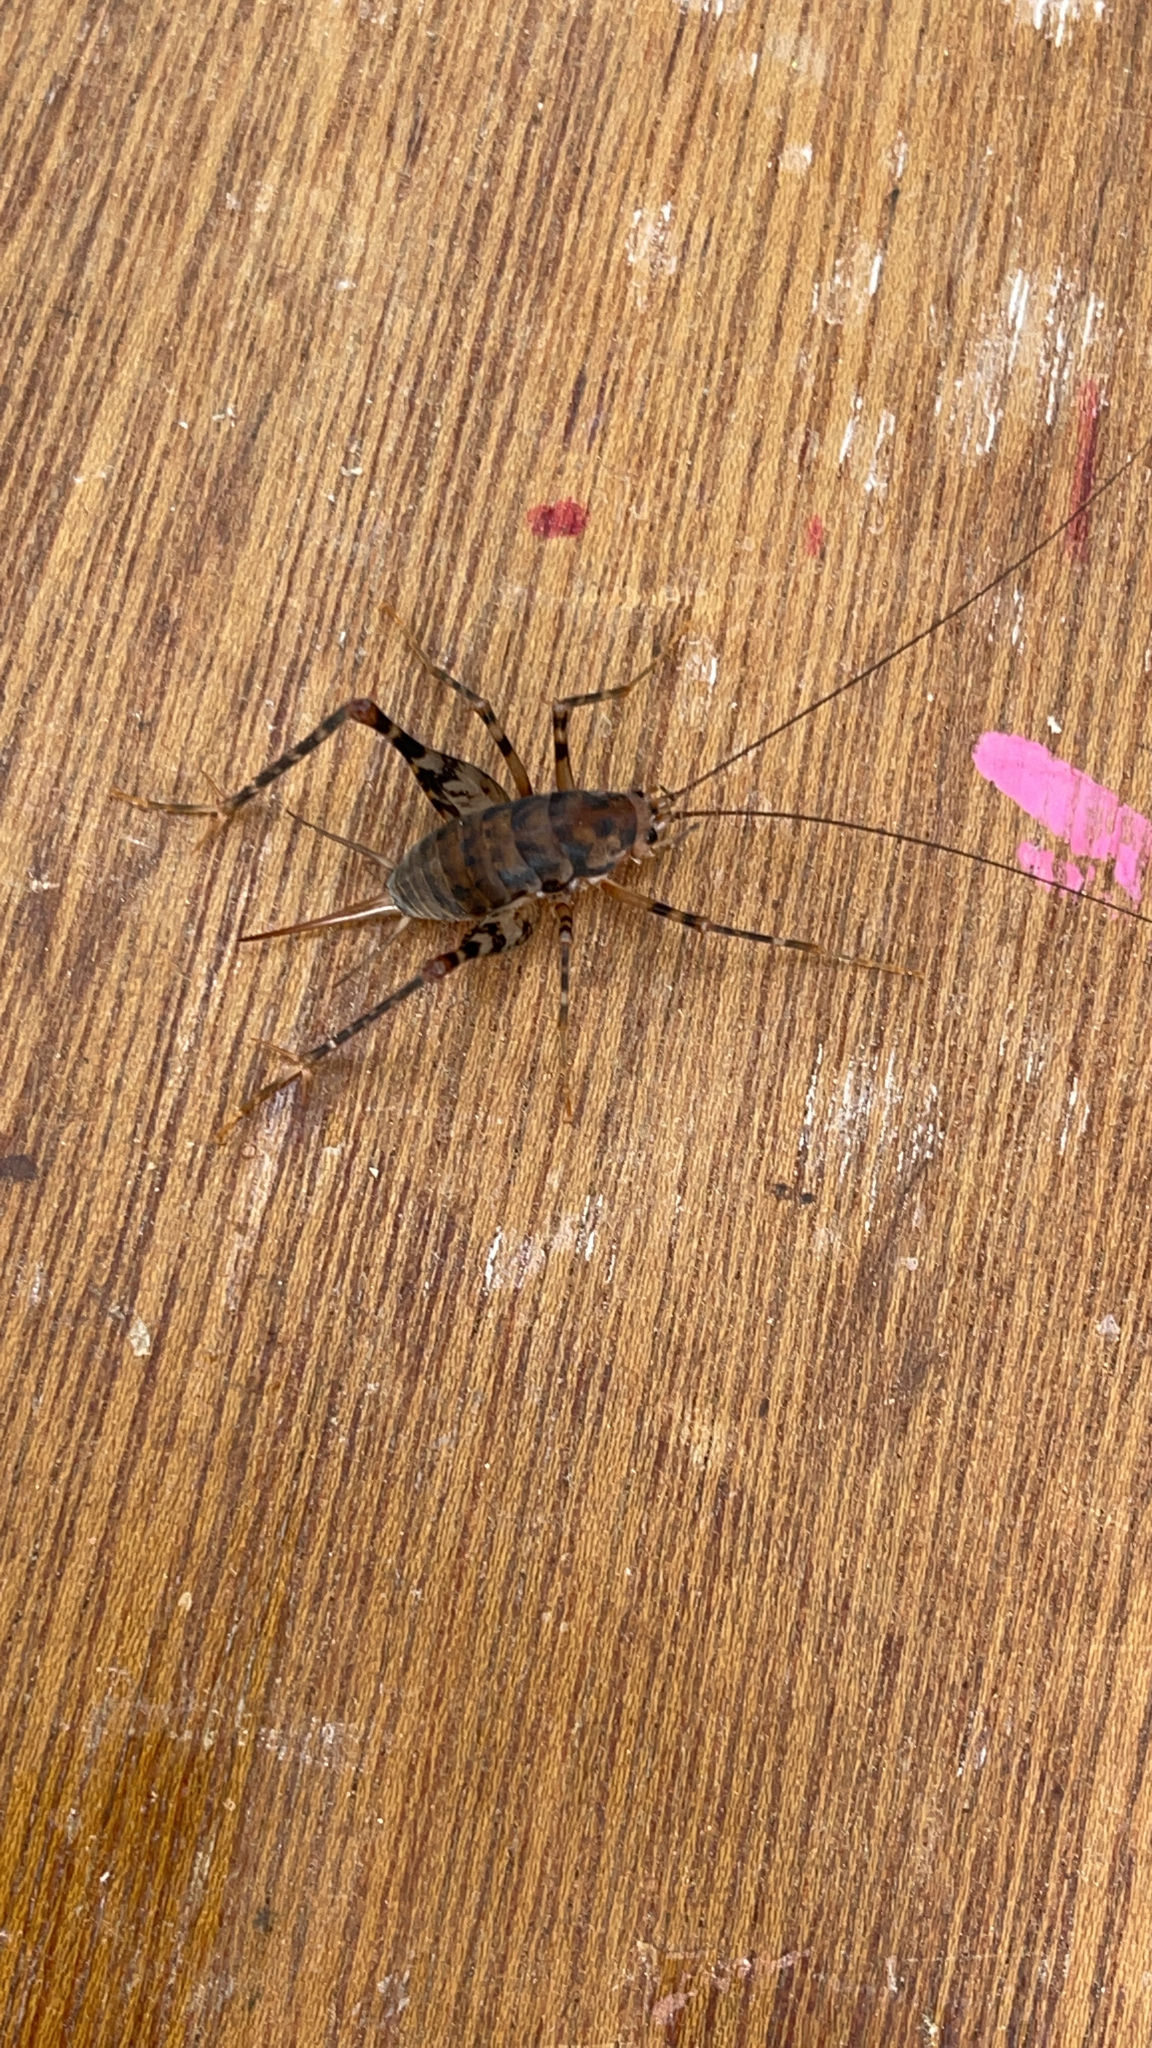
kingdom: Animalia
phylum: Arthropoda
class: Insecta
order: Orthoptera
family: Rhaphidophoridae
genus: Tachycines
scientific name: Tachycines asynamorus
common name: Greenhouse camel cricket
